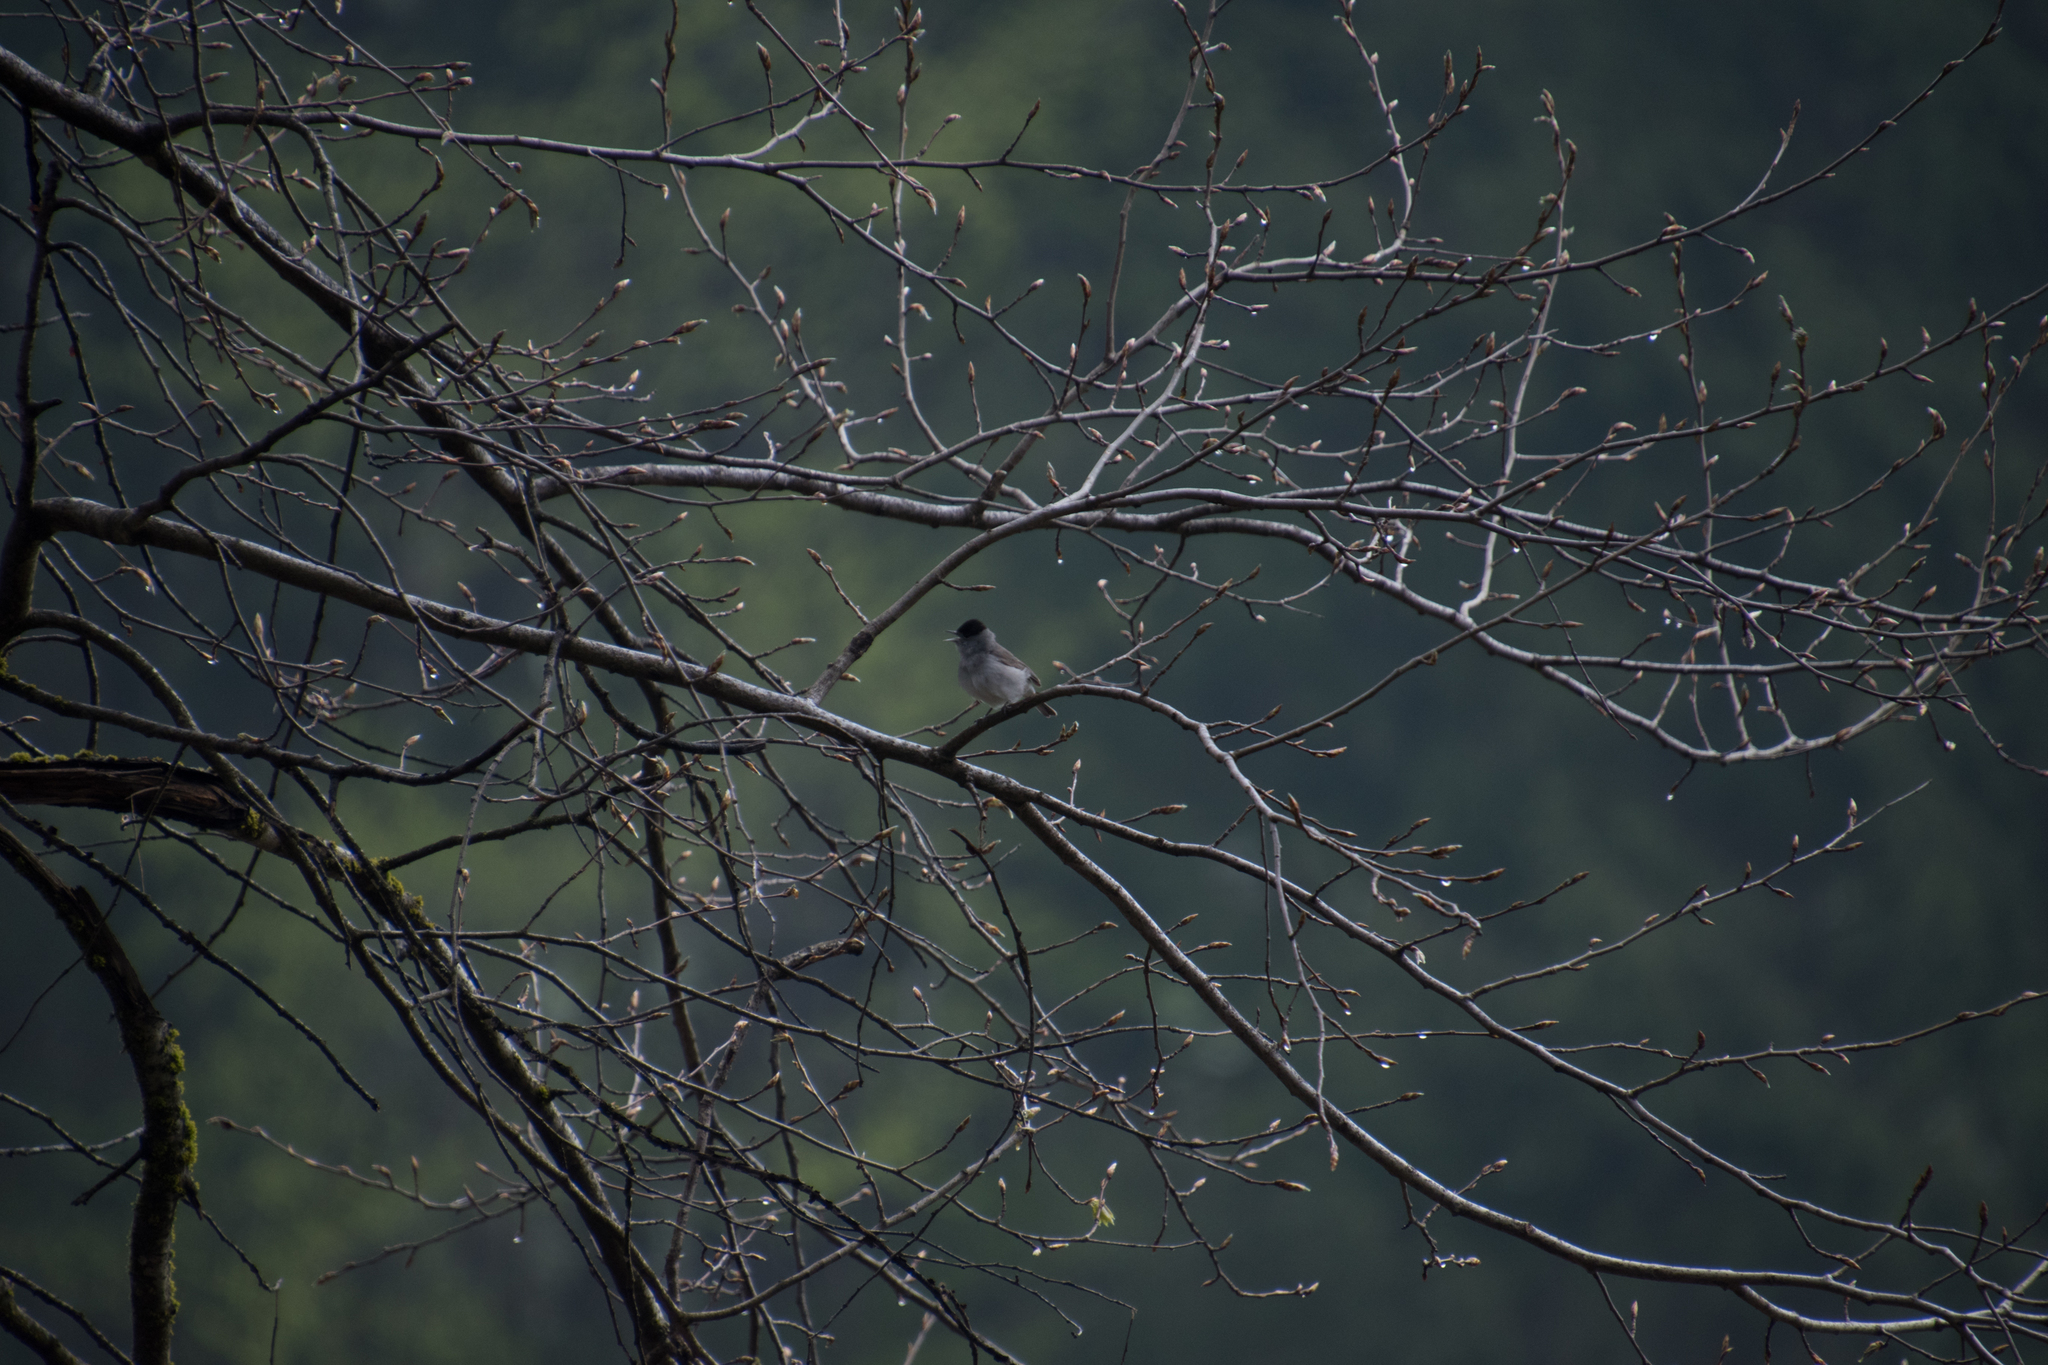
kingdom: Animalia
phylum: Chordata
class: Aves
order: Passeriformes
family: Sylviidae
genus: Sylvia
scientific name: Sylvia atricapilla
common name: Eurasian blackcap
